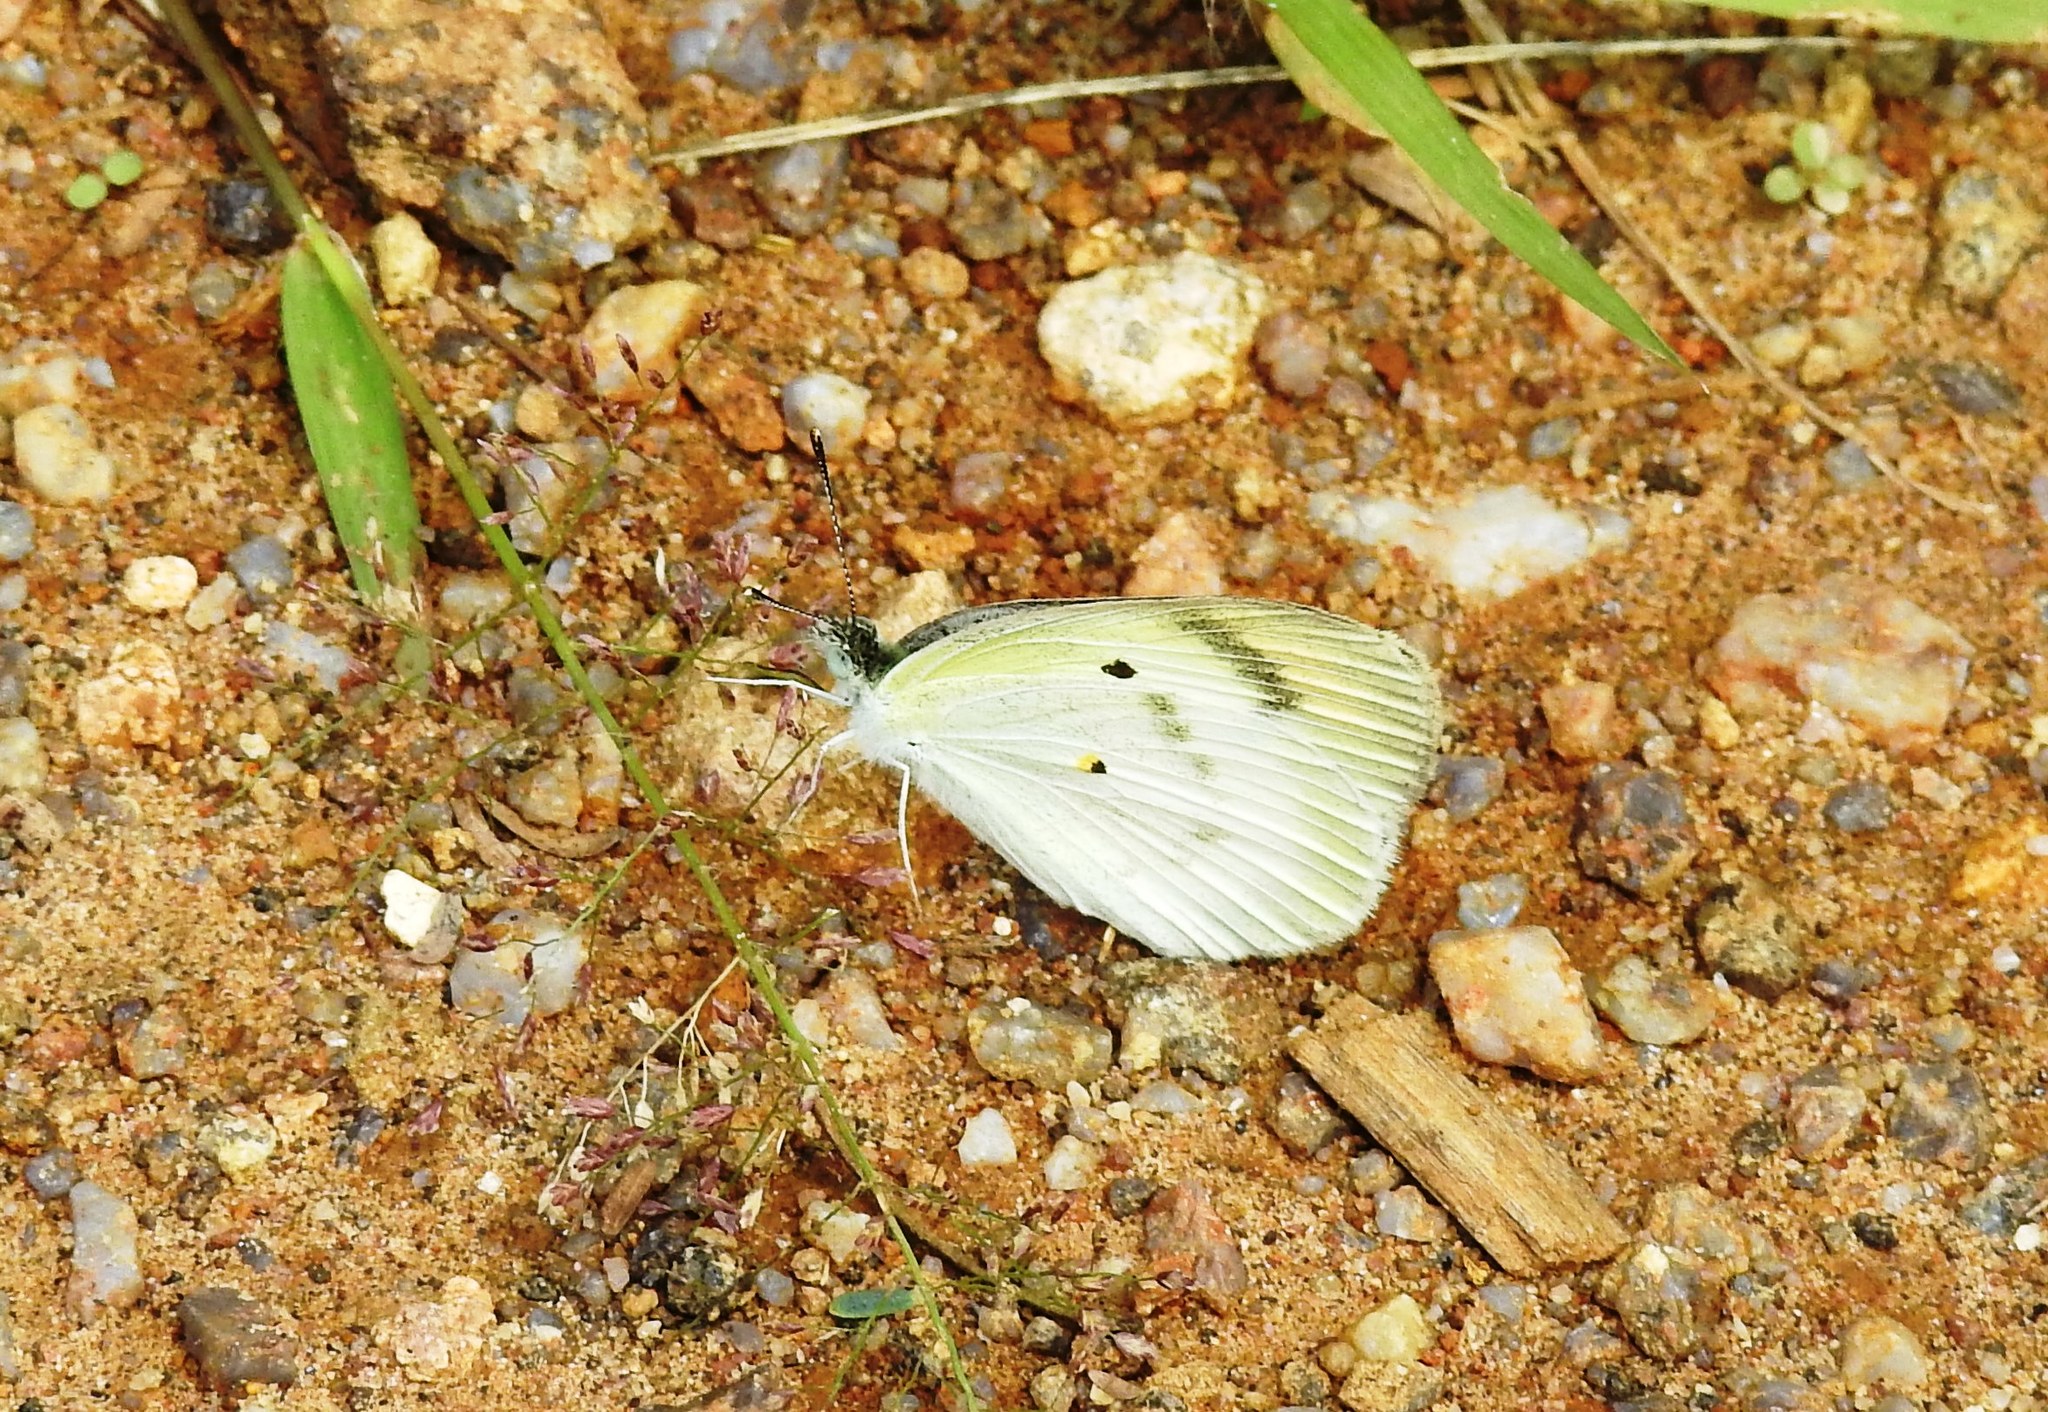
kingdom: Animalia
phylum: Arthropoda
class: Insecta
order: Lepidoptera
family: Pieridae
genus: Colotis
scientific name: Colotis etrida
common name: Little orange tip
